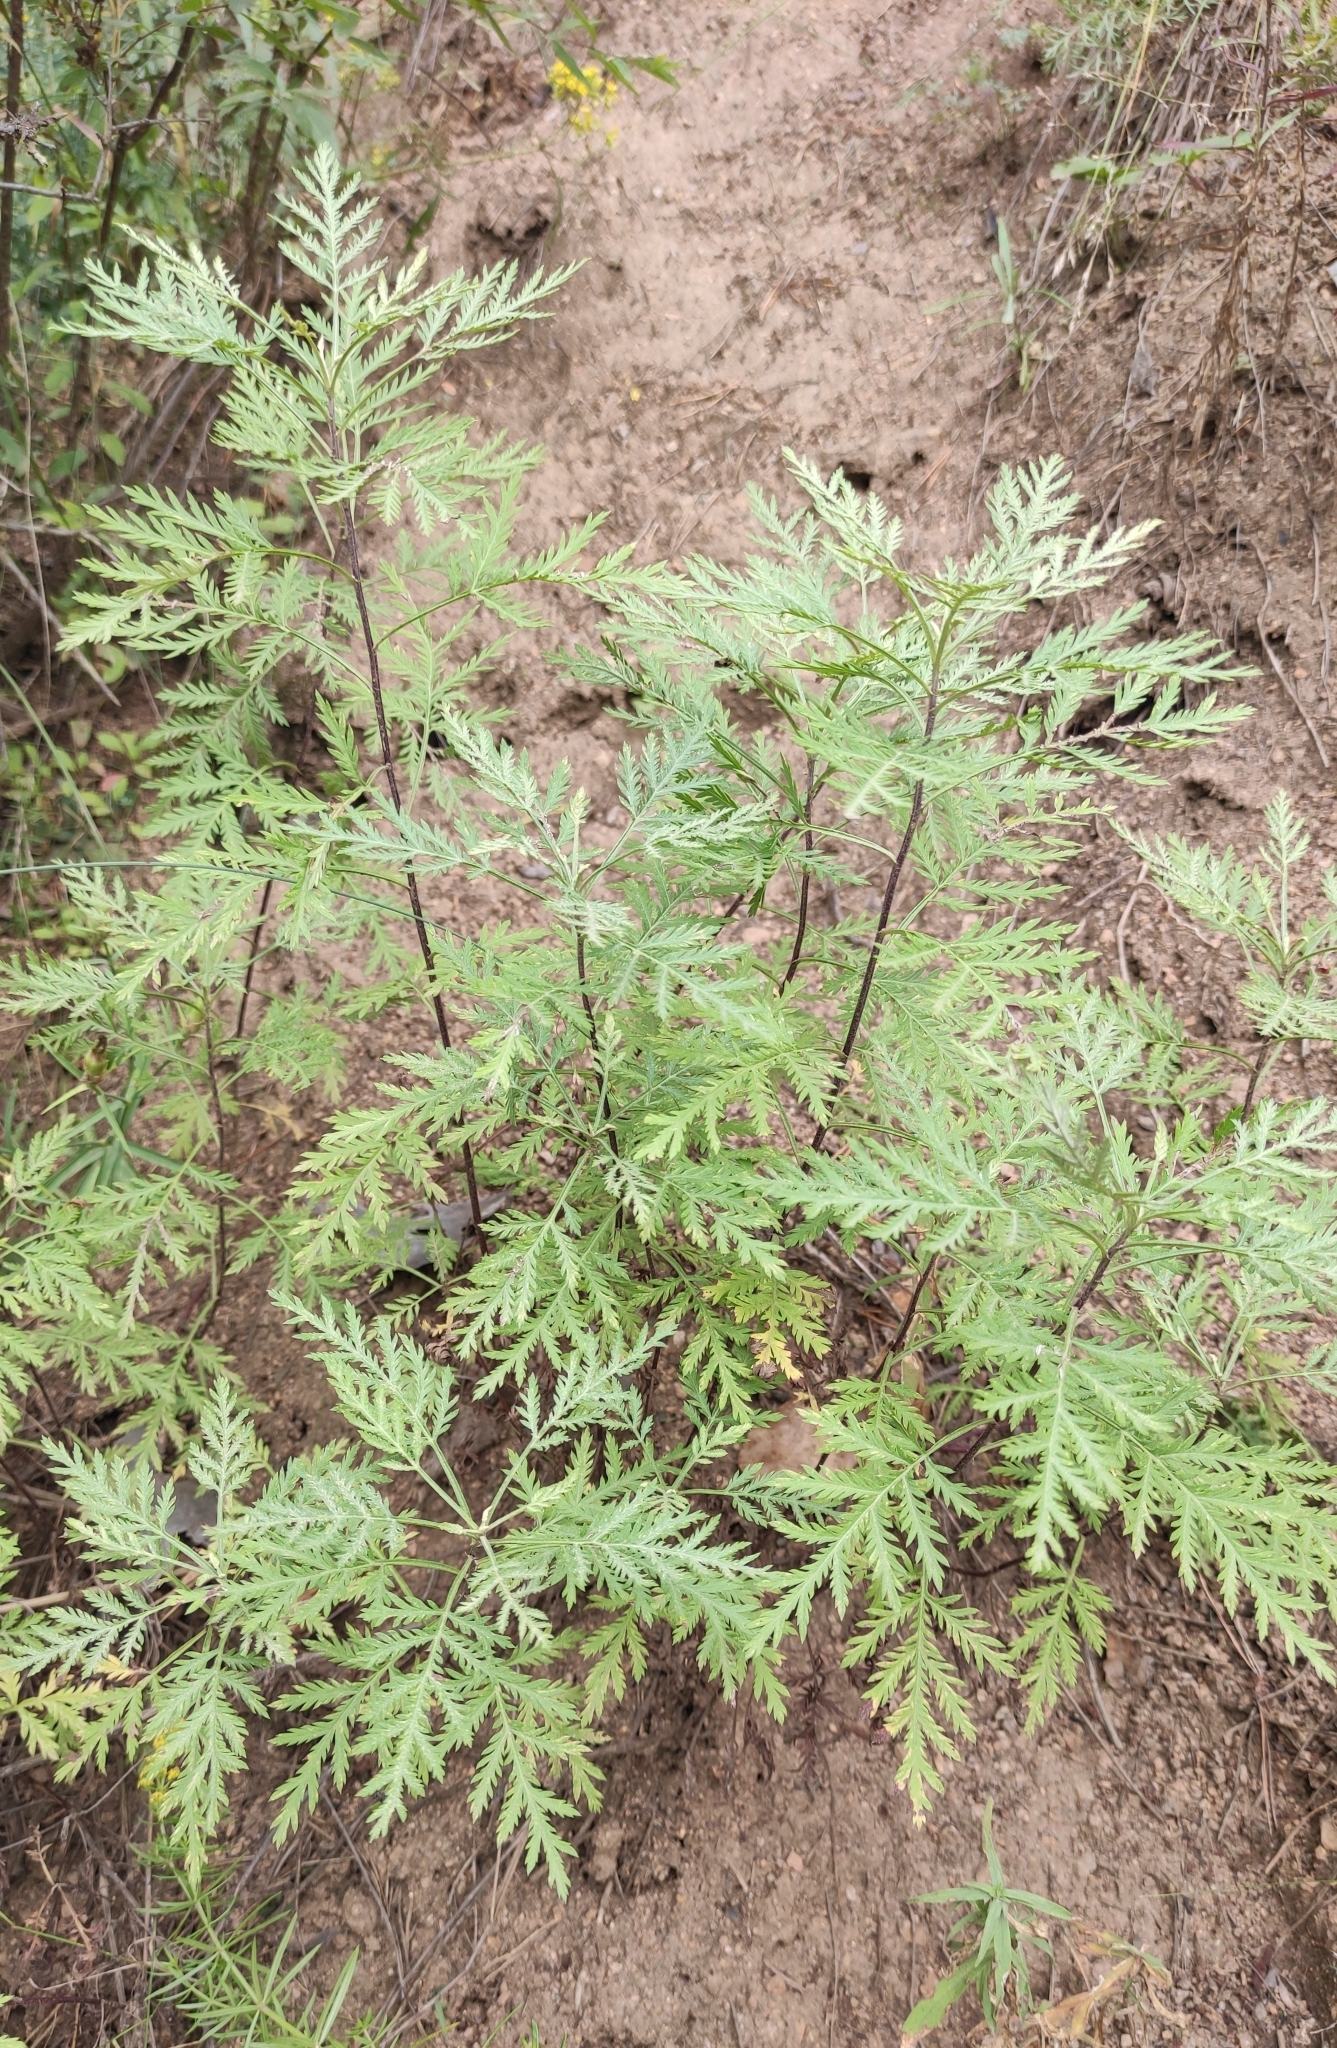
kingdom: Plantae
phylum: Tracheophyta
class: Magnoliopsida
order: Asterales
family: Asteraceae
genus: Artemisia
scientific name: Artemisia gmelinii
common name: Gmelin's wormwood
